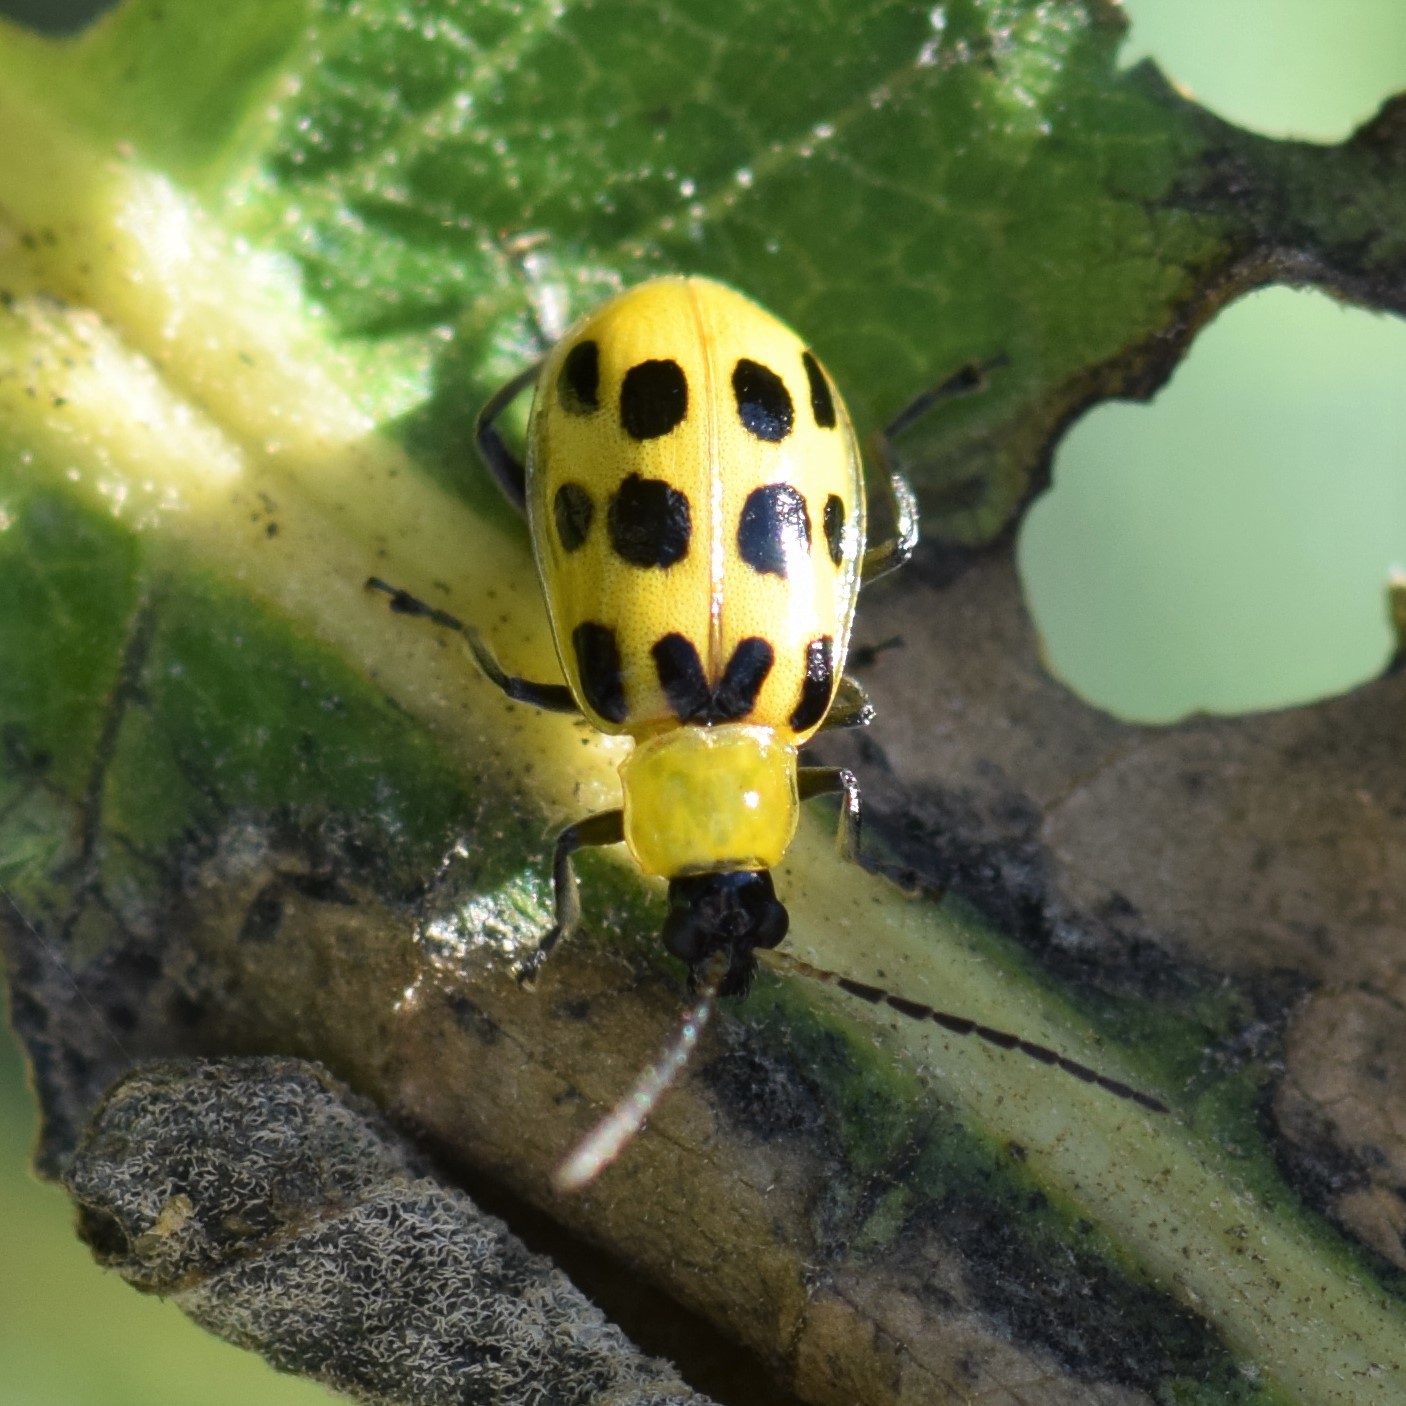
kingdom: Animalia
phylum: Arthropoda
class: Insecta
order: Coleoptera
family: Chrysomelidae
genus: Diabrotica
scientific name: Diabrotica undecimpunctata
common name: Spotted cucumber beetle
